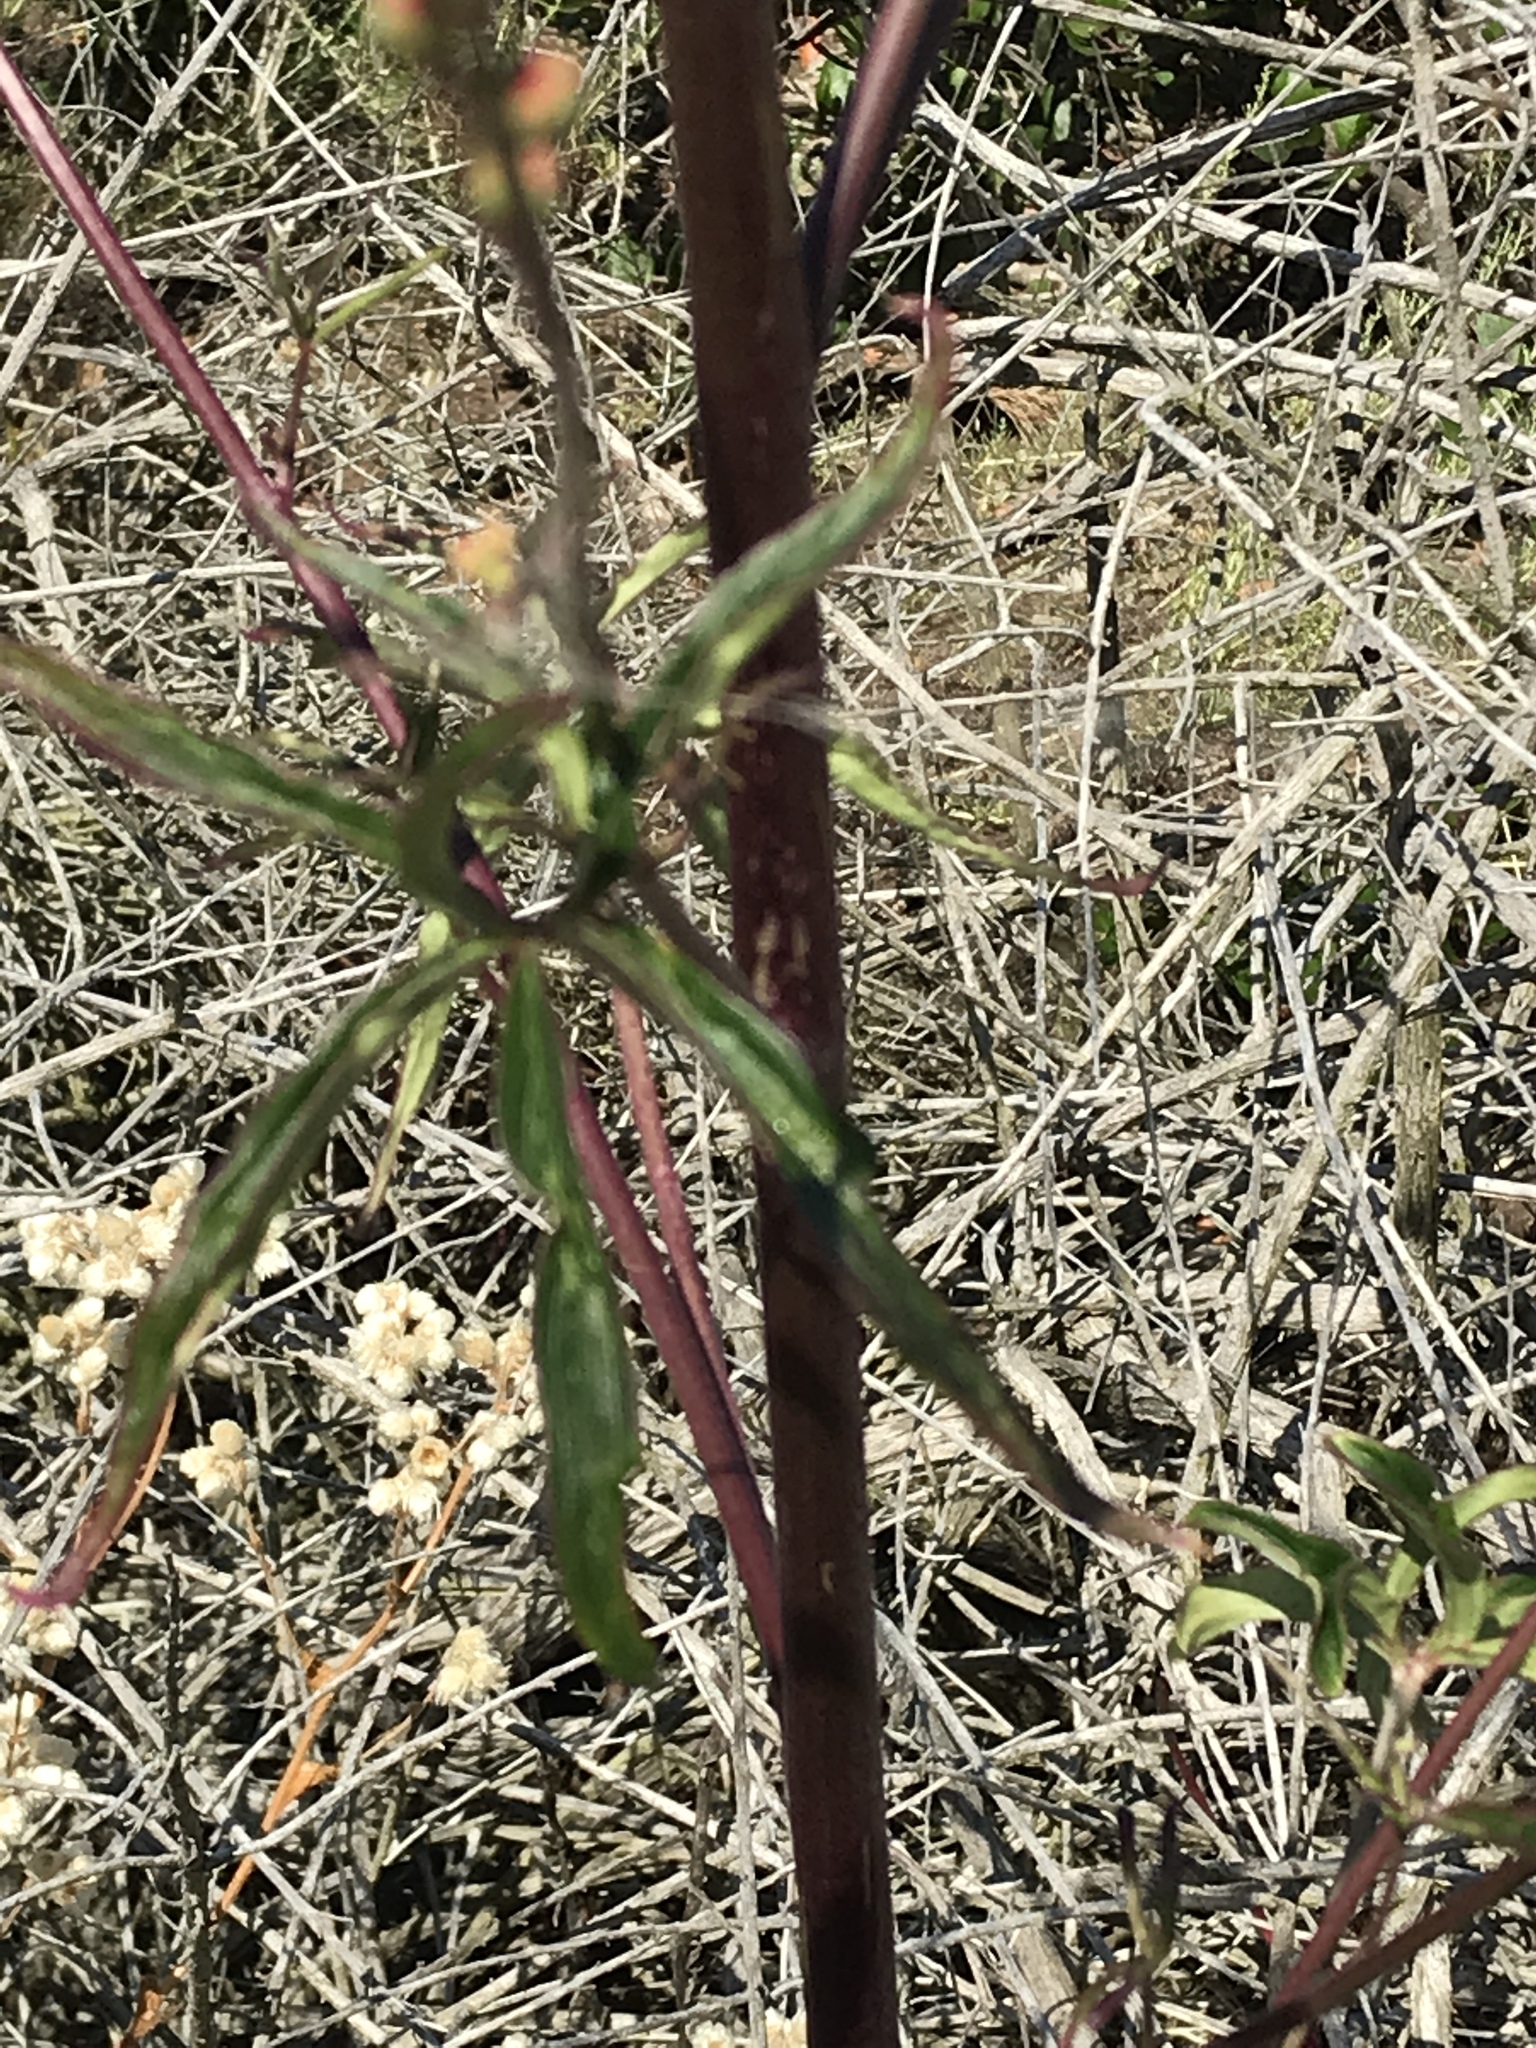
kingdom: Plantae
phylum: Tracheophyta
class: Magnoliopsida
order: Ranunculales
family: Ranunculaceae
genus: Delphinium
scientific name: Delphinium cardinale
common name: Scarlet larkspur
